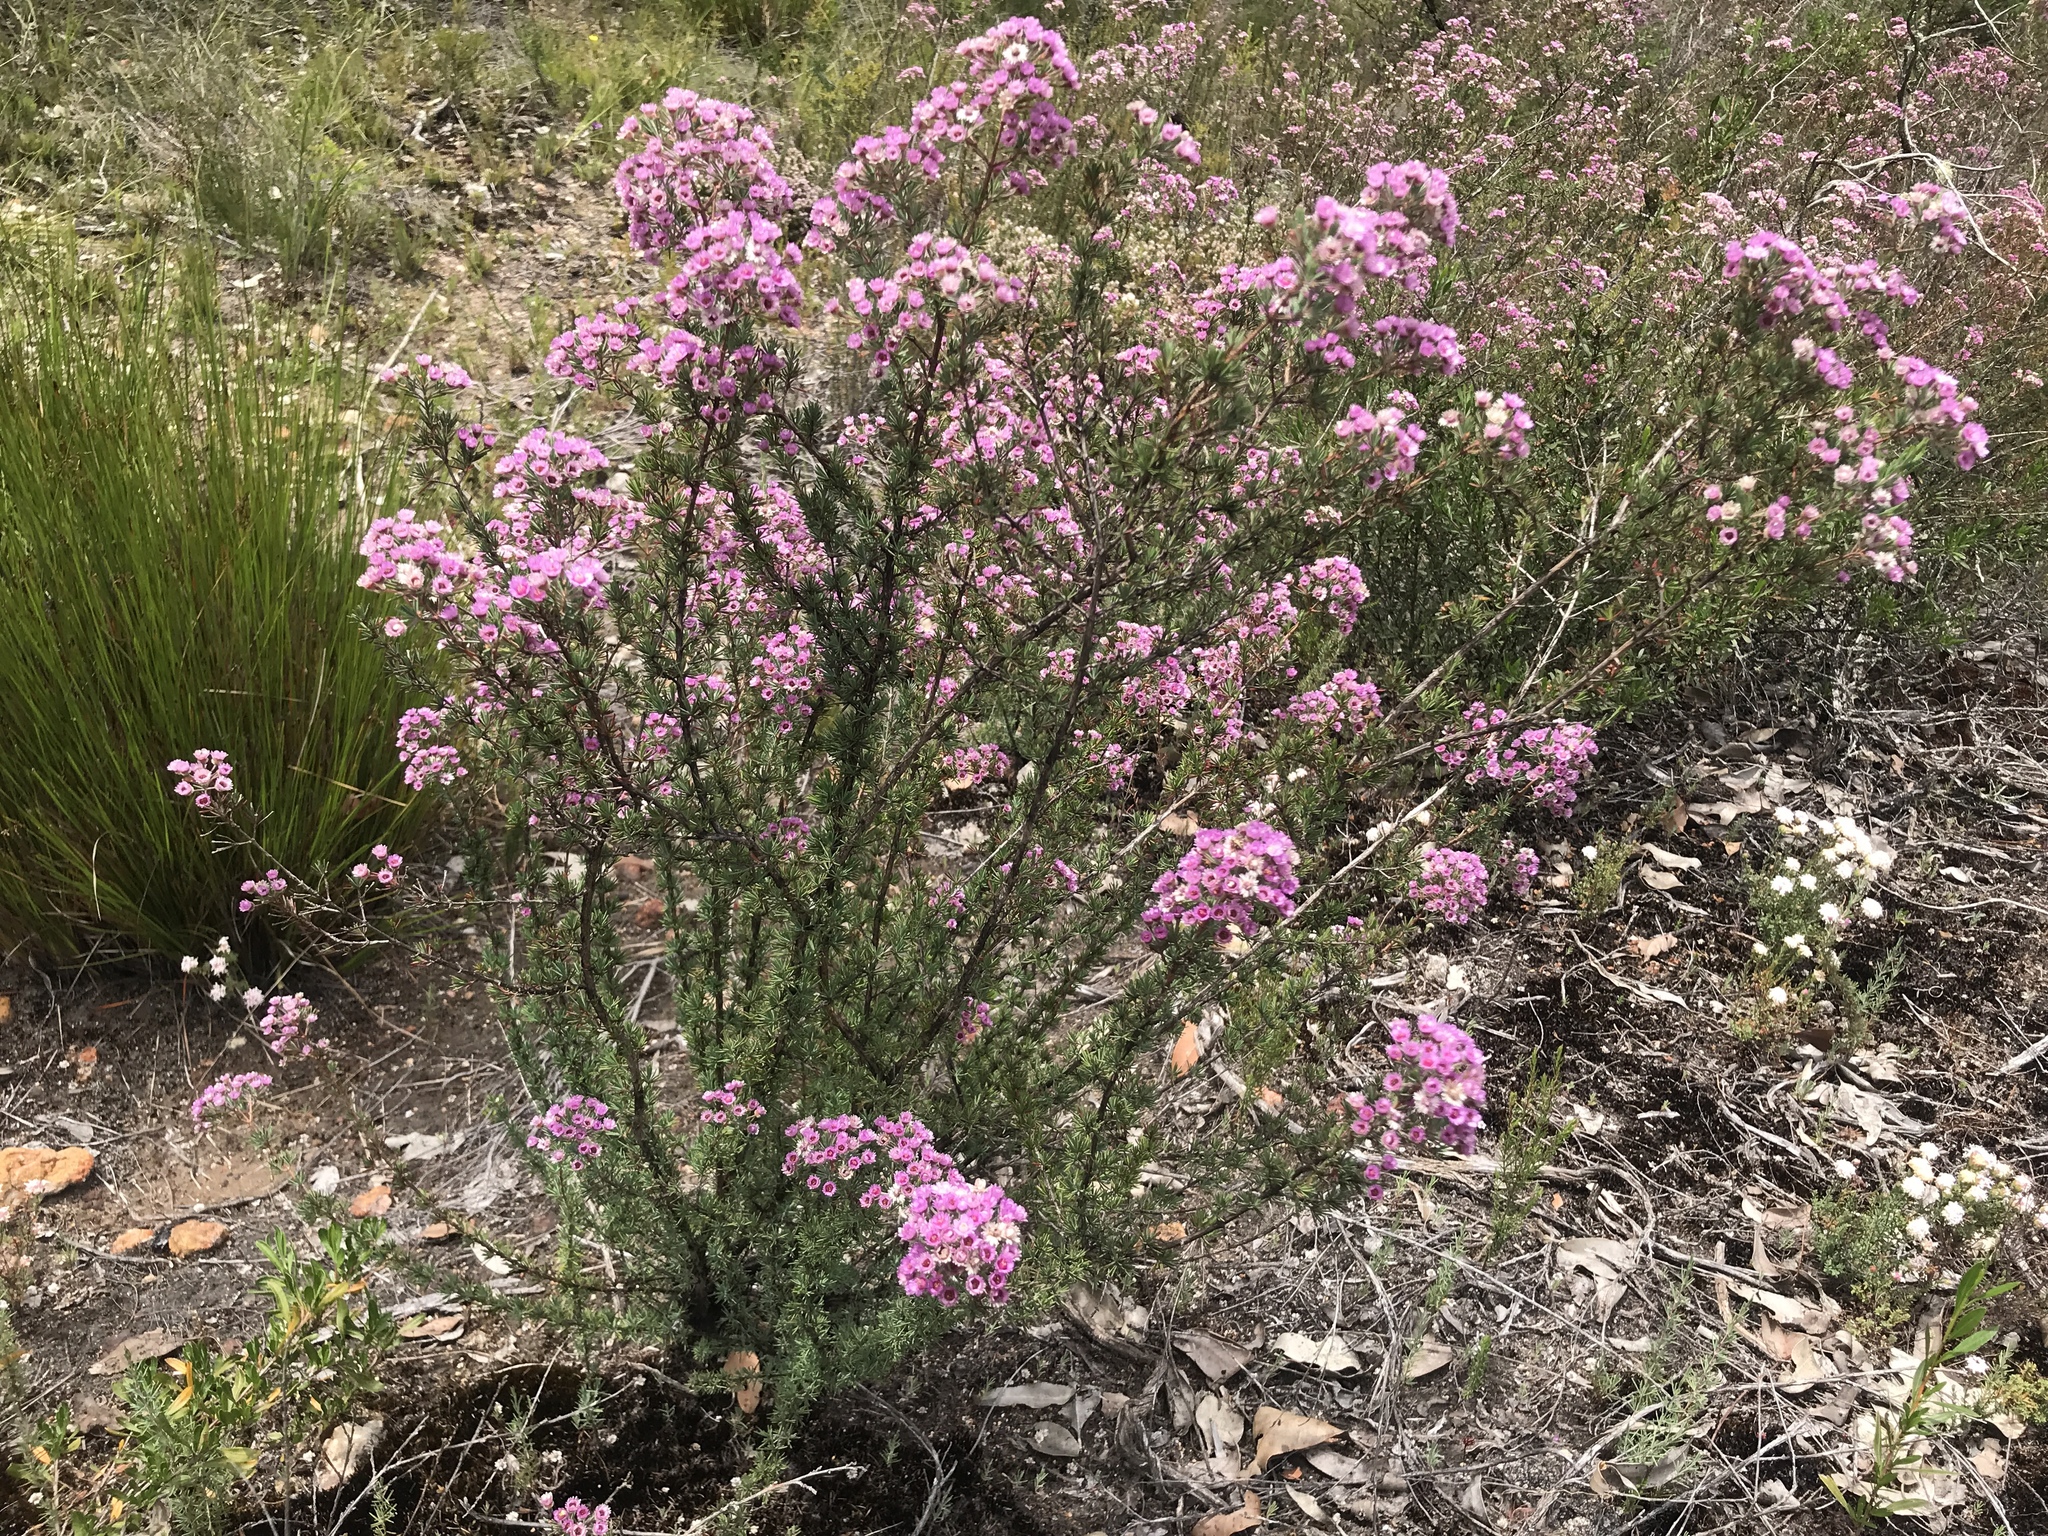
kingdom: Plantae
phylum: Tracheophyta
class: Magnoliopsida
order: Myrtales
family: Myrtaceae
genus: Verticordia
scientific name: Verticordia plumosa
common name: Plume feather-flower
